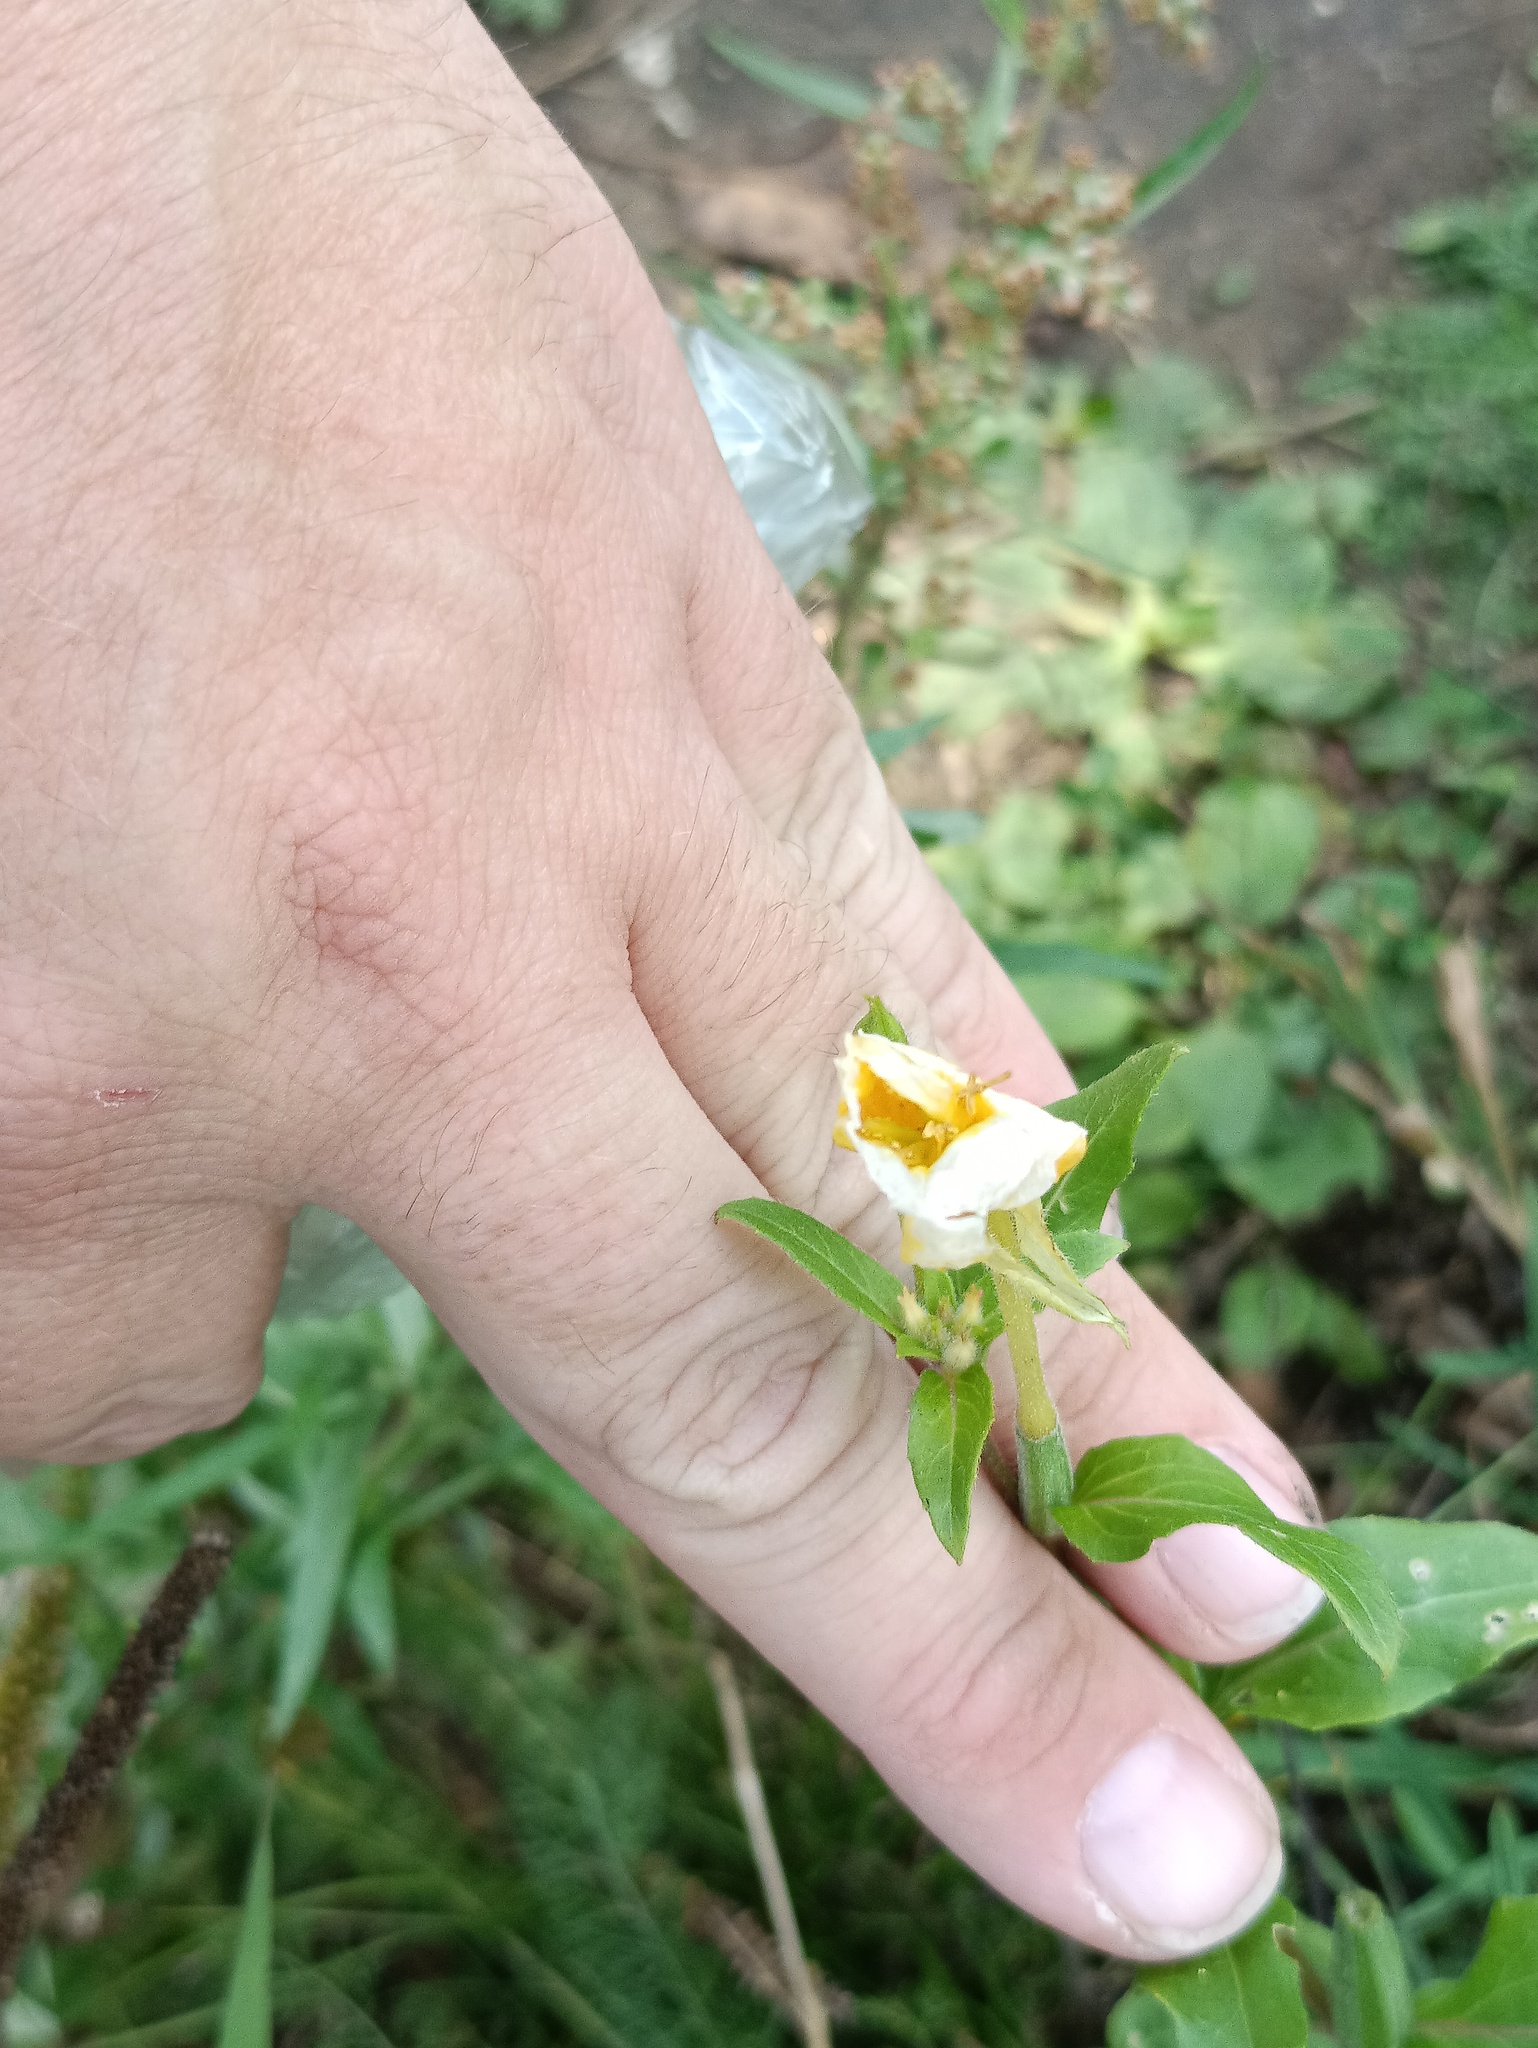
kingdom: Plantae
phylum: Tracheophyta
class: Magnoliopsida
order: Myrtales
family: Onagraceae
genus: Oenothera
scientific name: Oenothera rubricaulis
